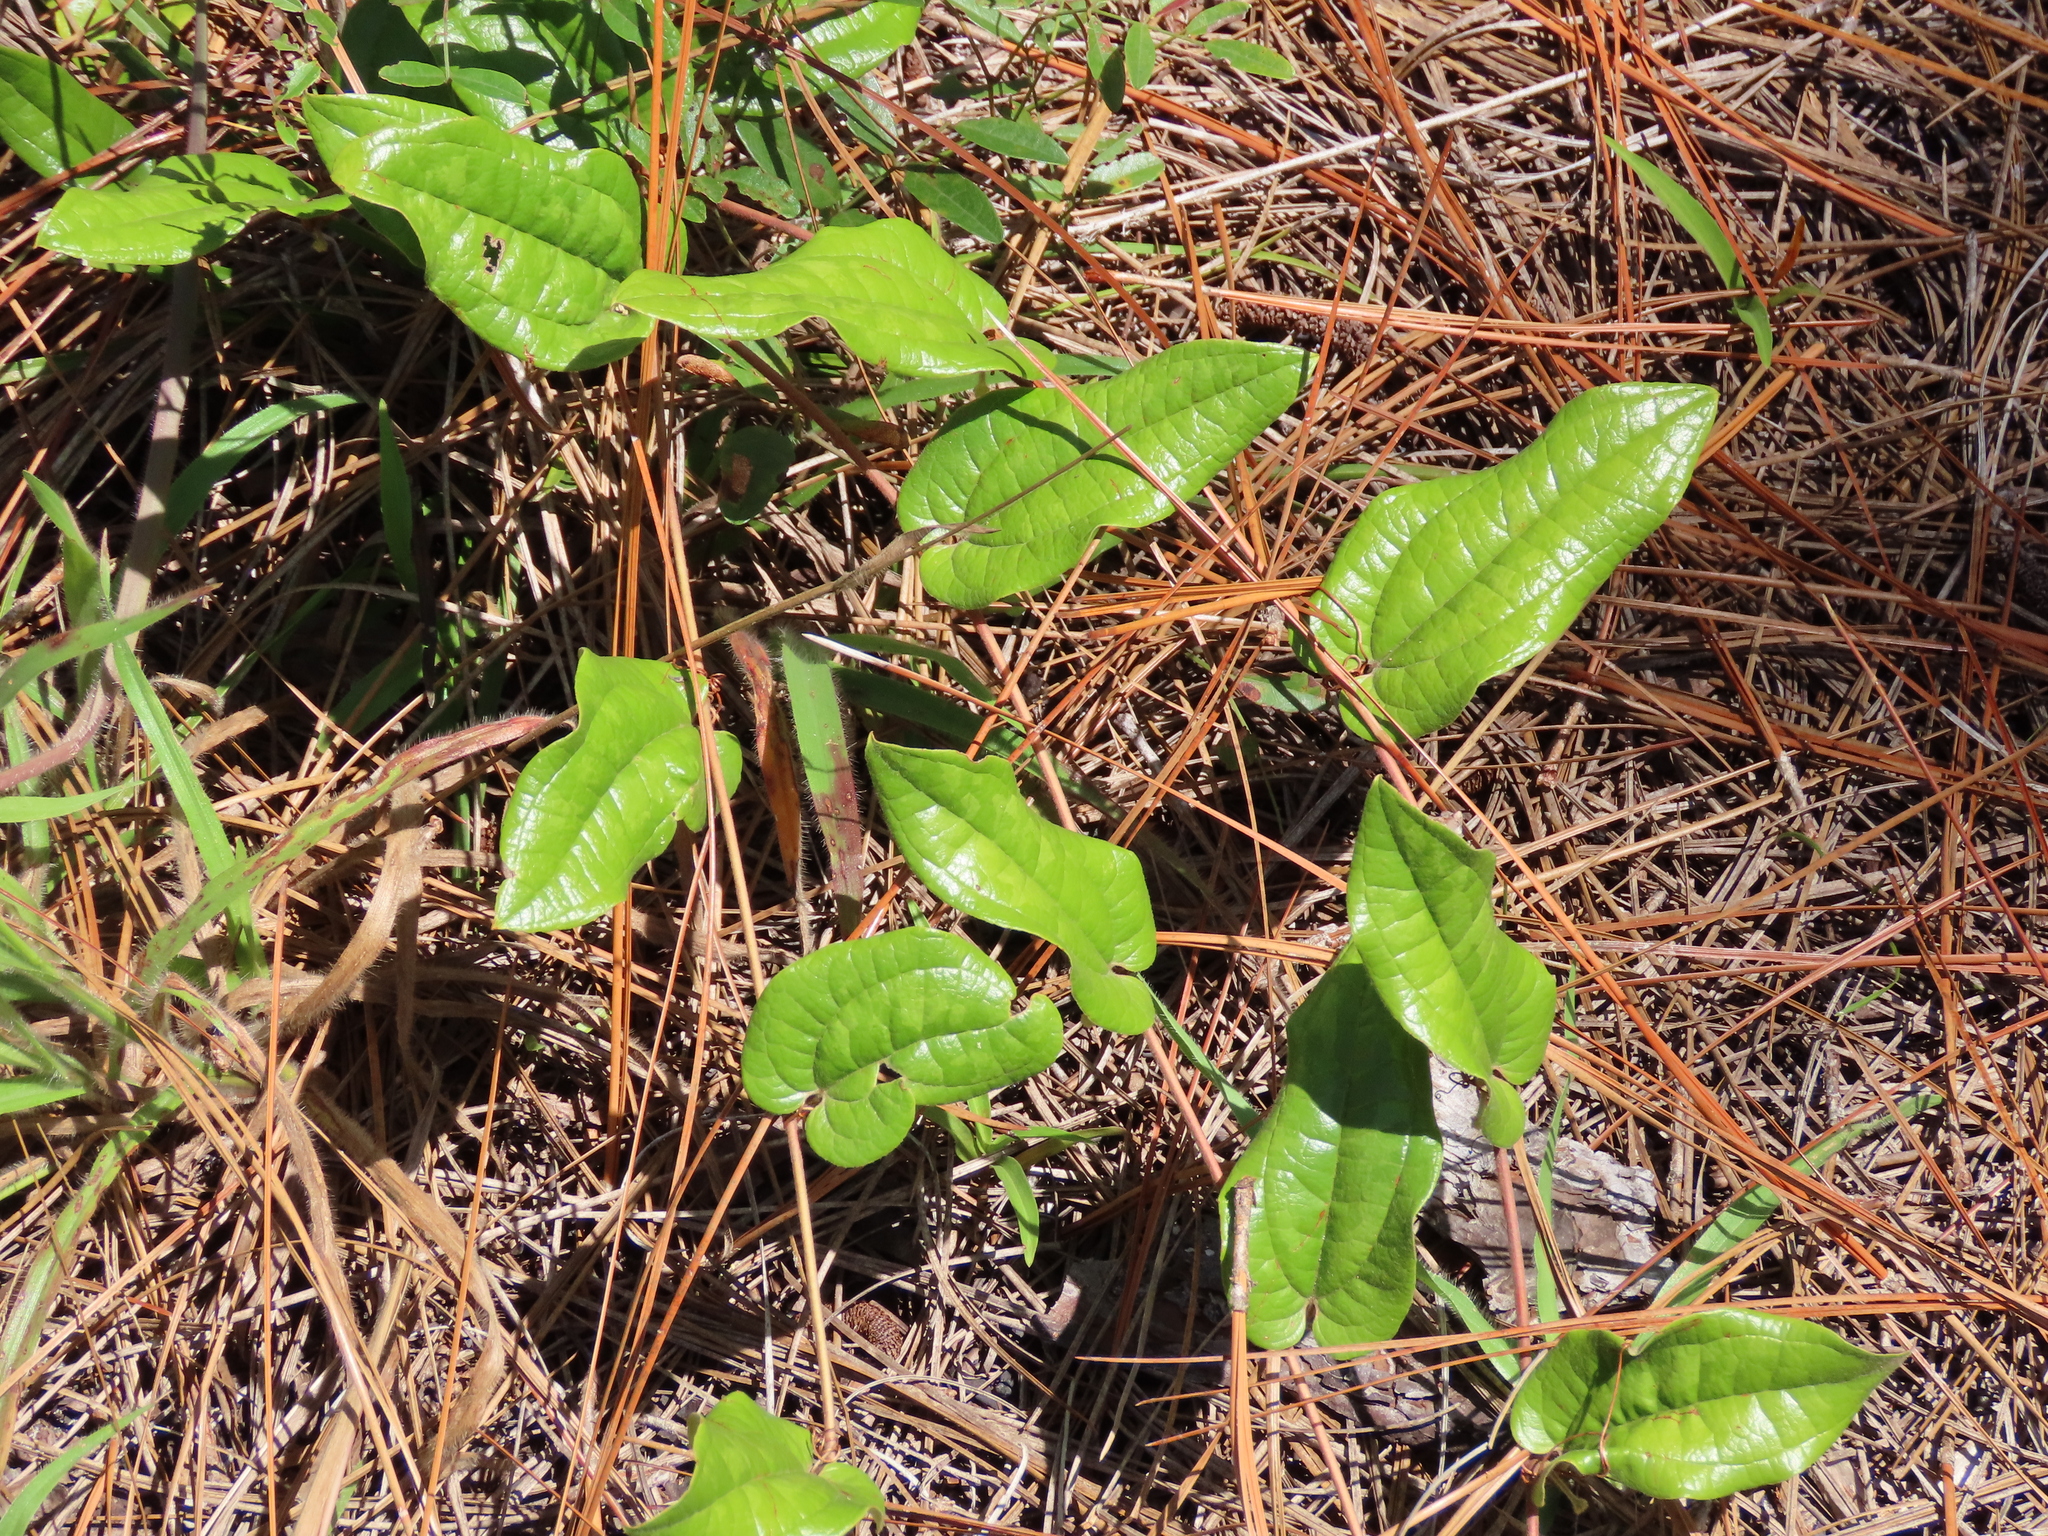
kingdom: Plantae
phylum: Tracheophyta
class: Liliopsida
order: Liliales
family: Smilacaceae
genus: Smilax
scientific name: Smilax pumila
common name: Sarsaparilla-vine
